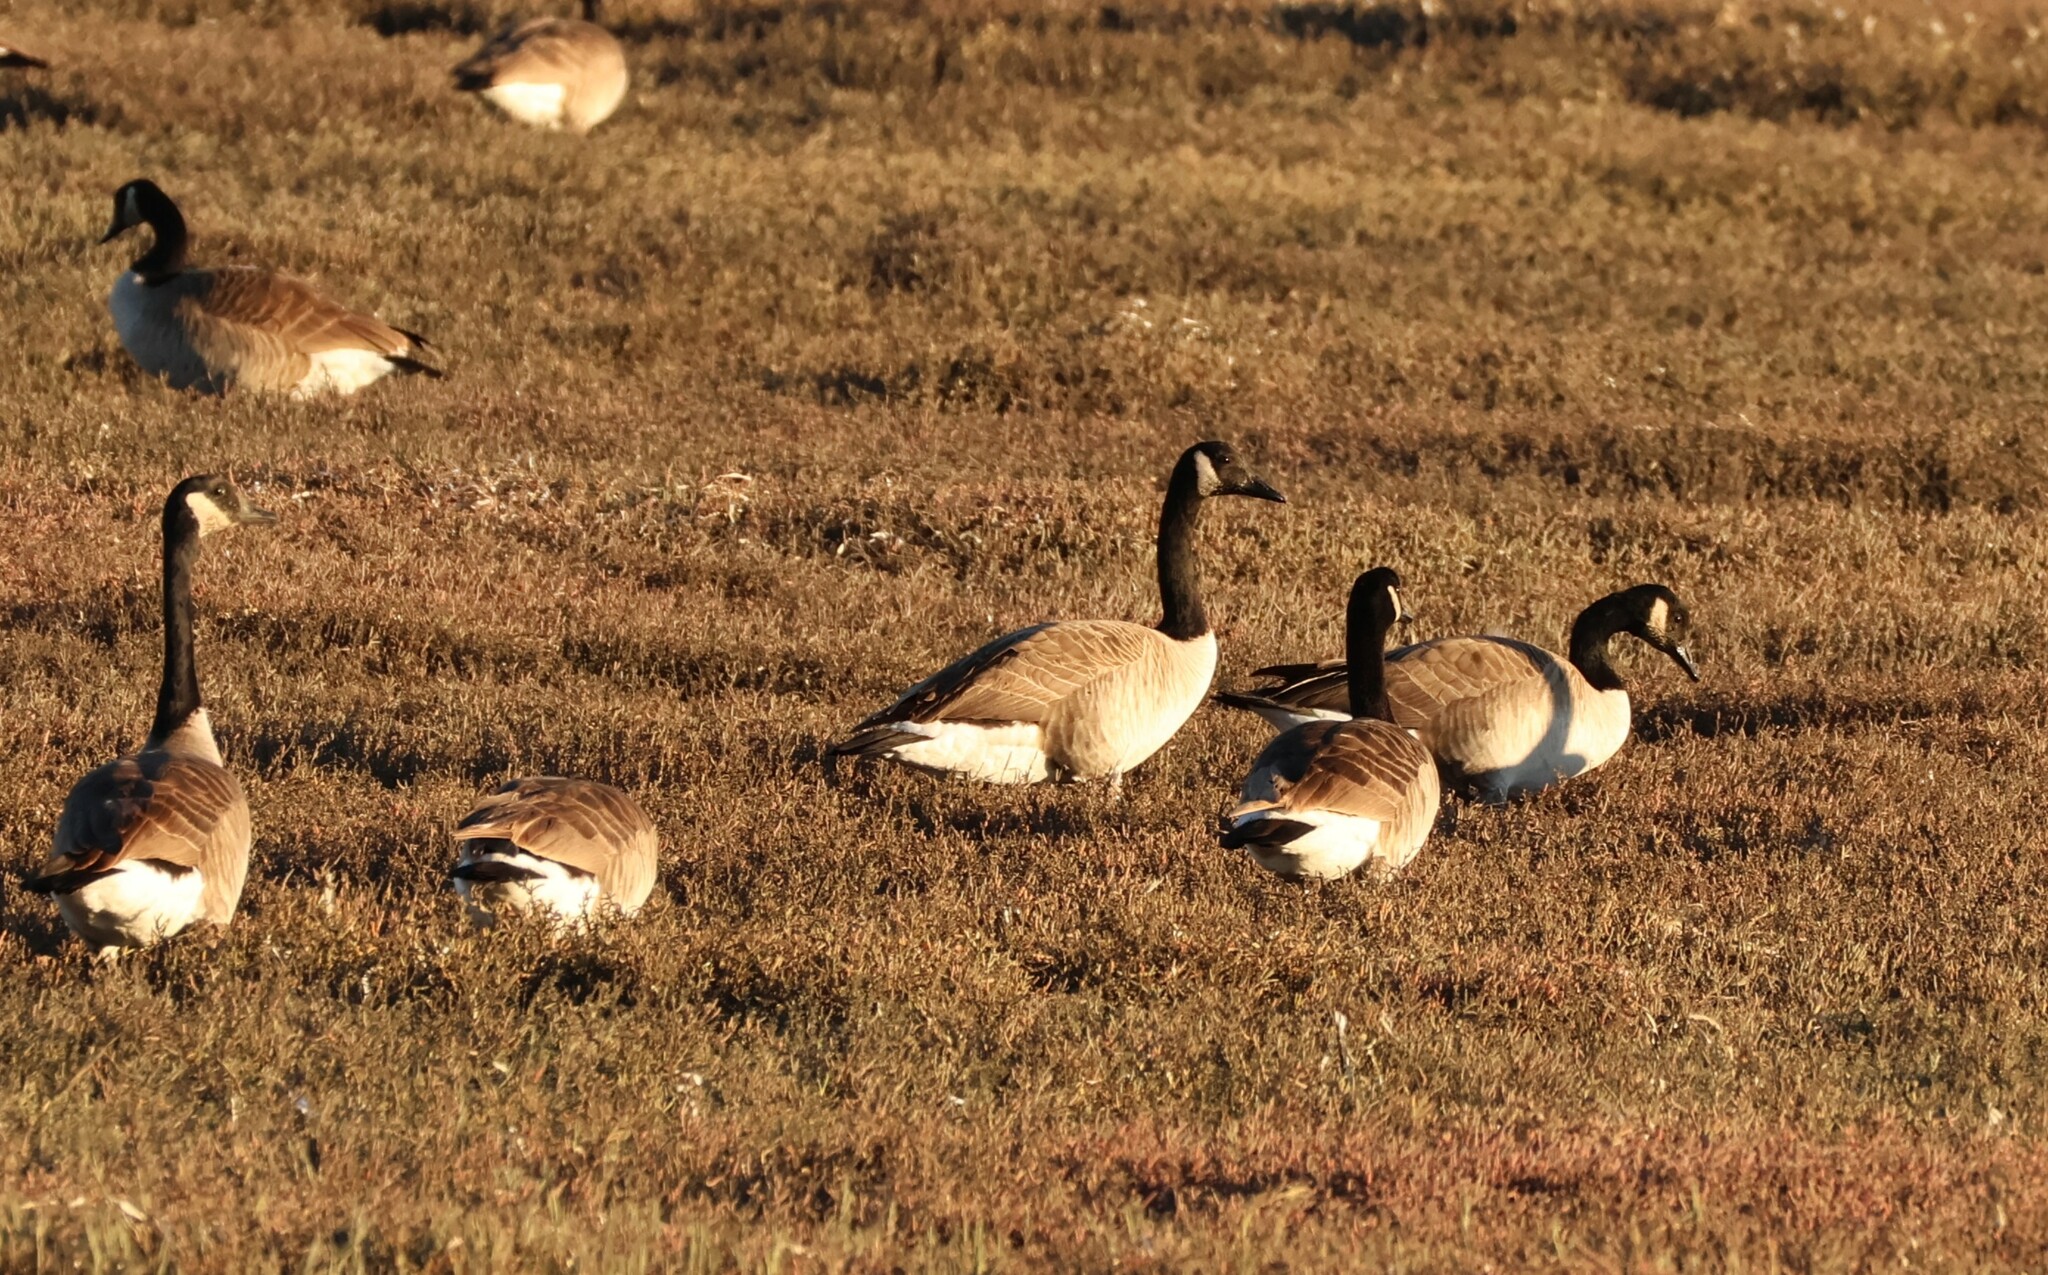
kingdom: Animalia
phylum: Chordata
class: Aves
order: Anseriformes
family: Anatidae
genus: Branta
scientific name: Branta canadensis
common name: Canada goose
